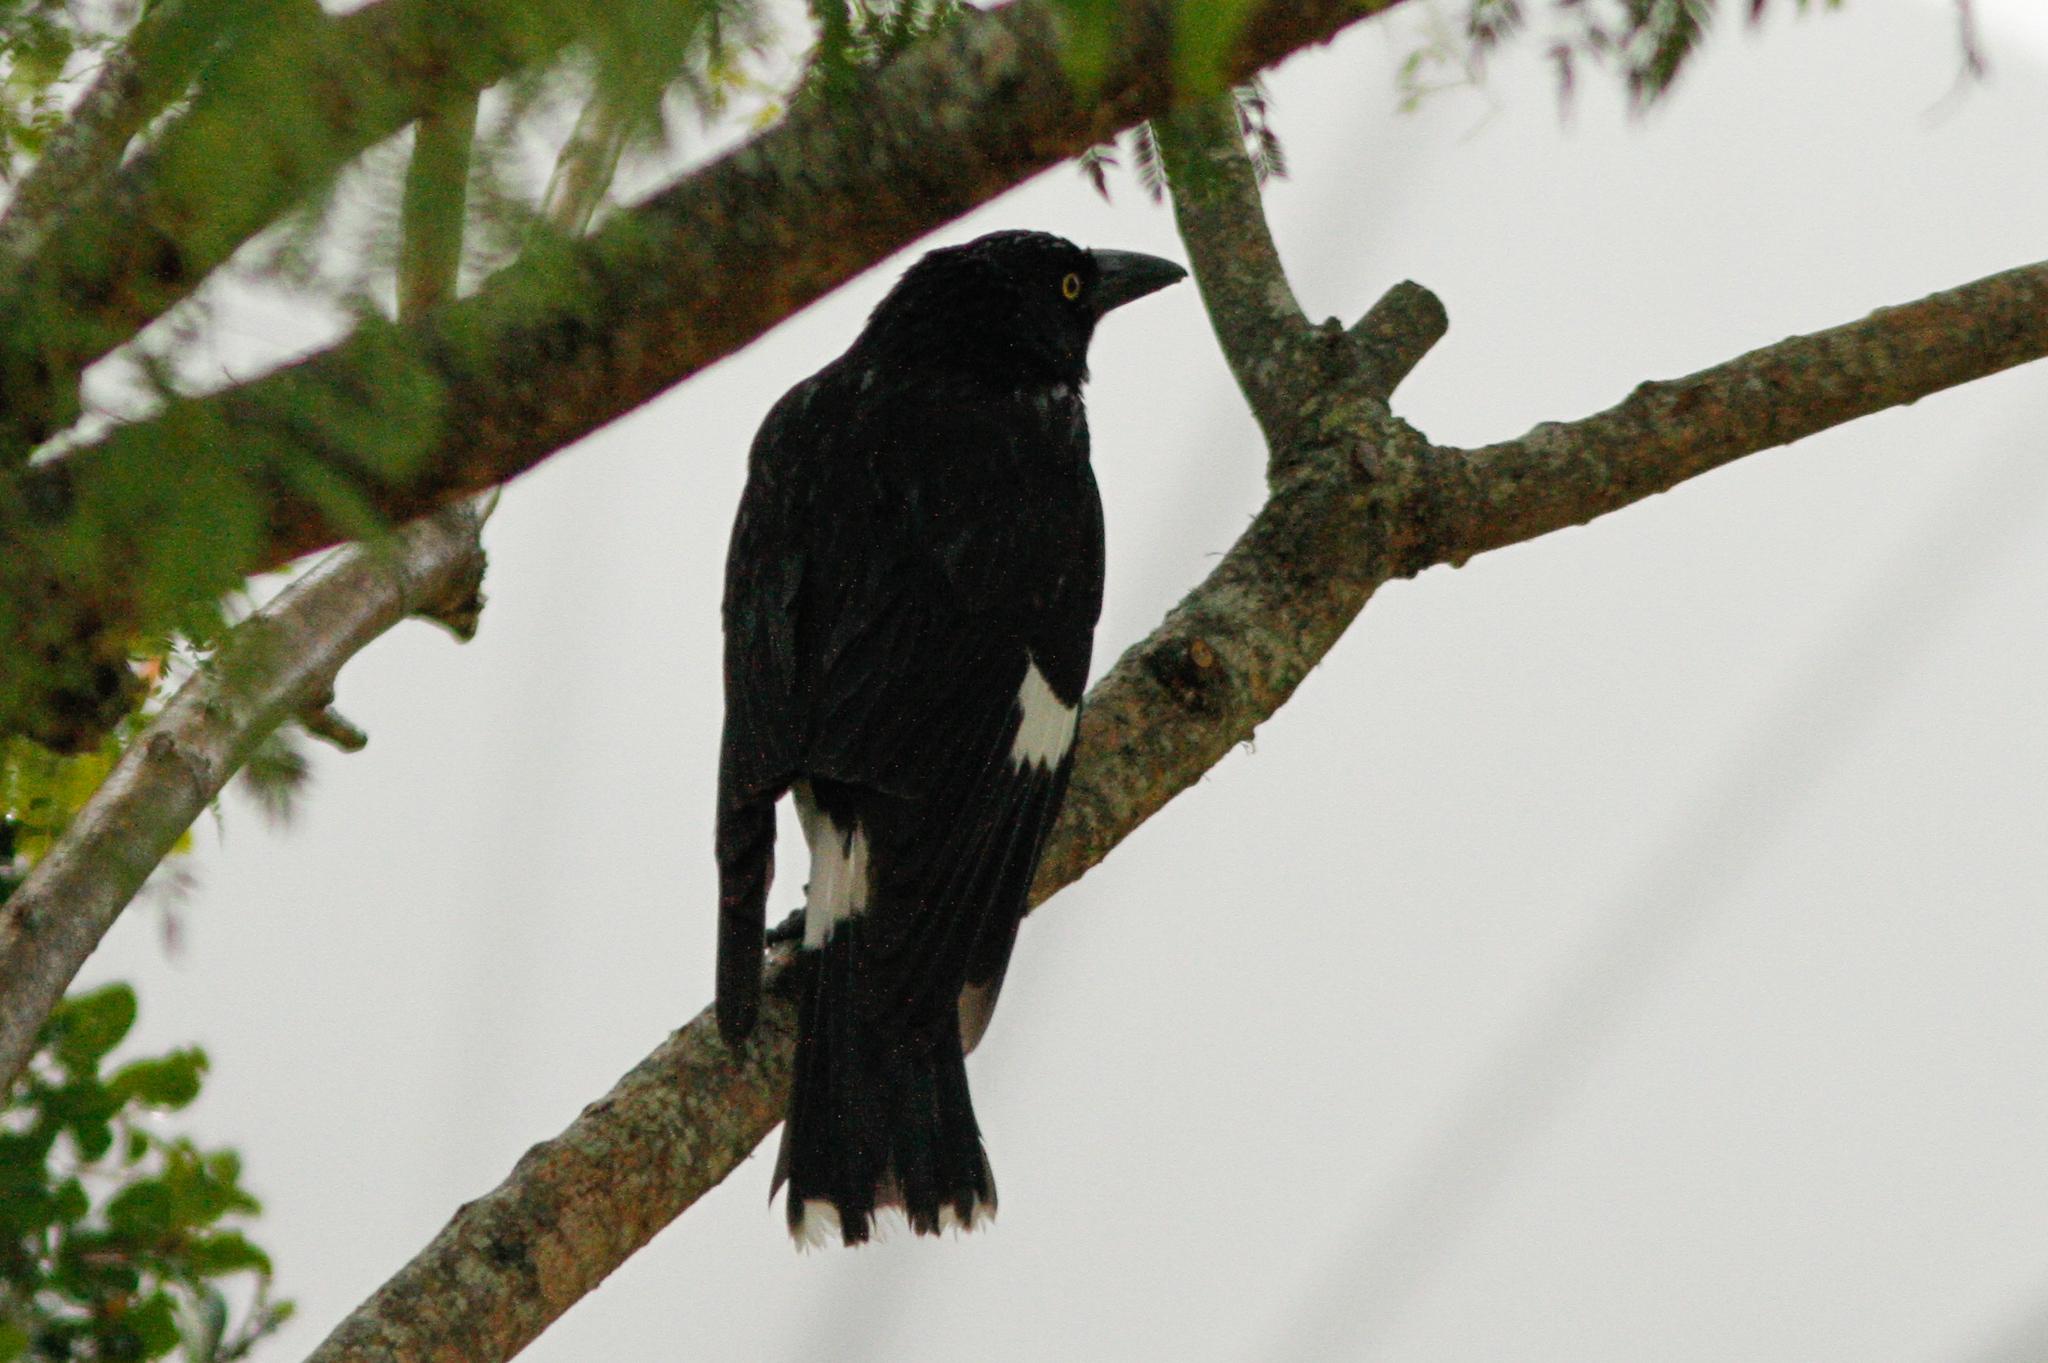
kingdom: Animalia
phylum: Chordata
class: Aves
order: Passeriformes
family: Cracticidae
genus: Strepera
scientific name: Strepera graculina
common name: Pied currawong
